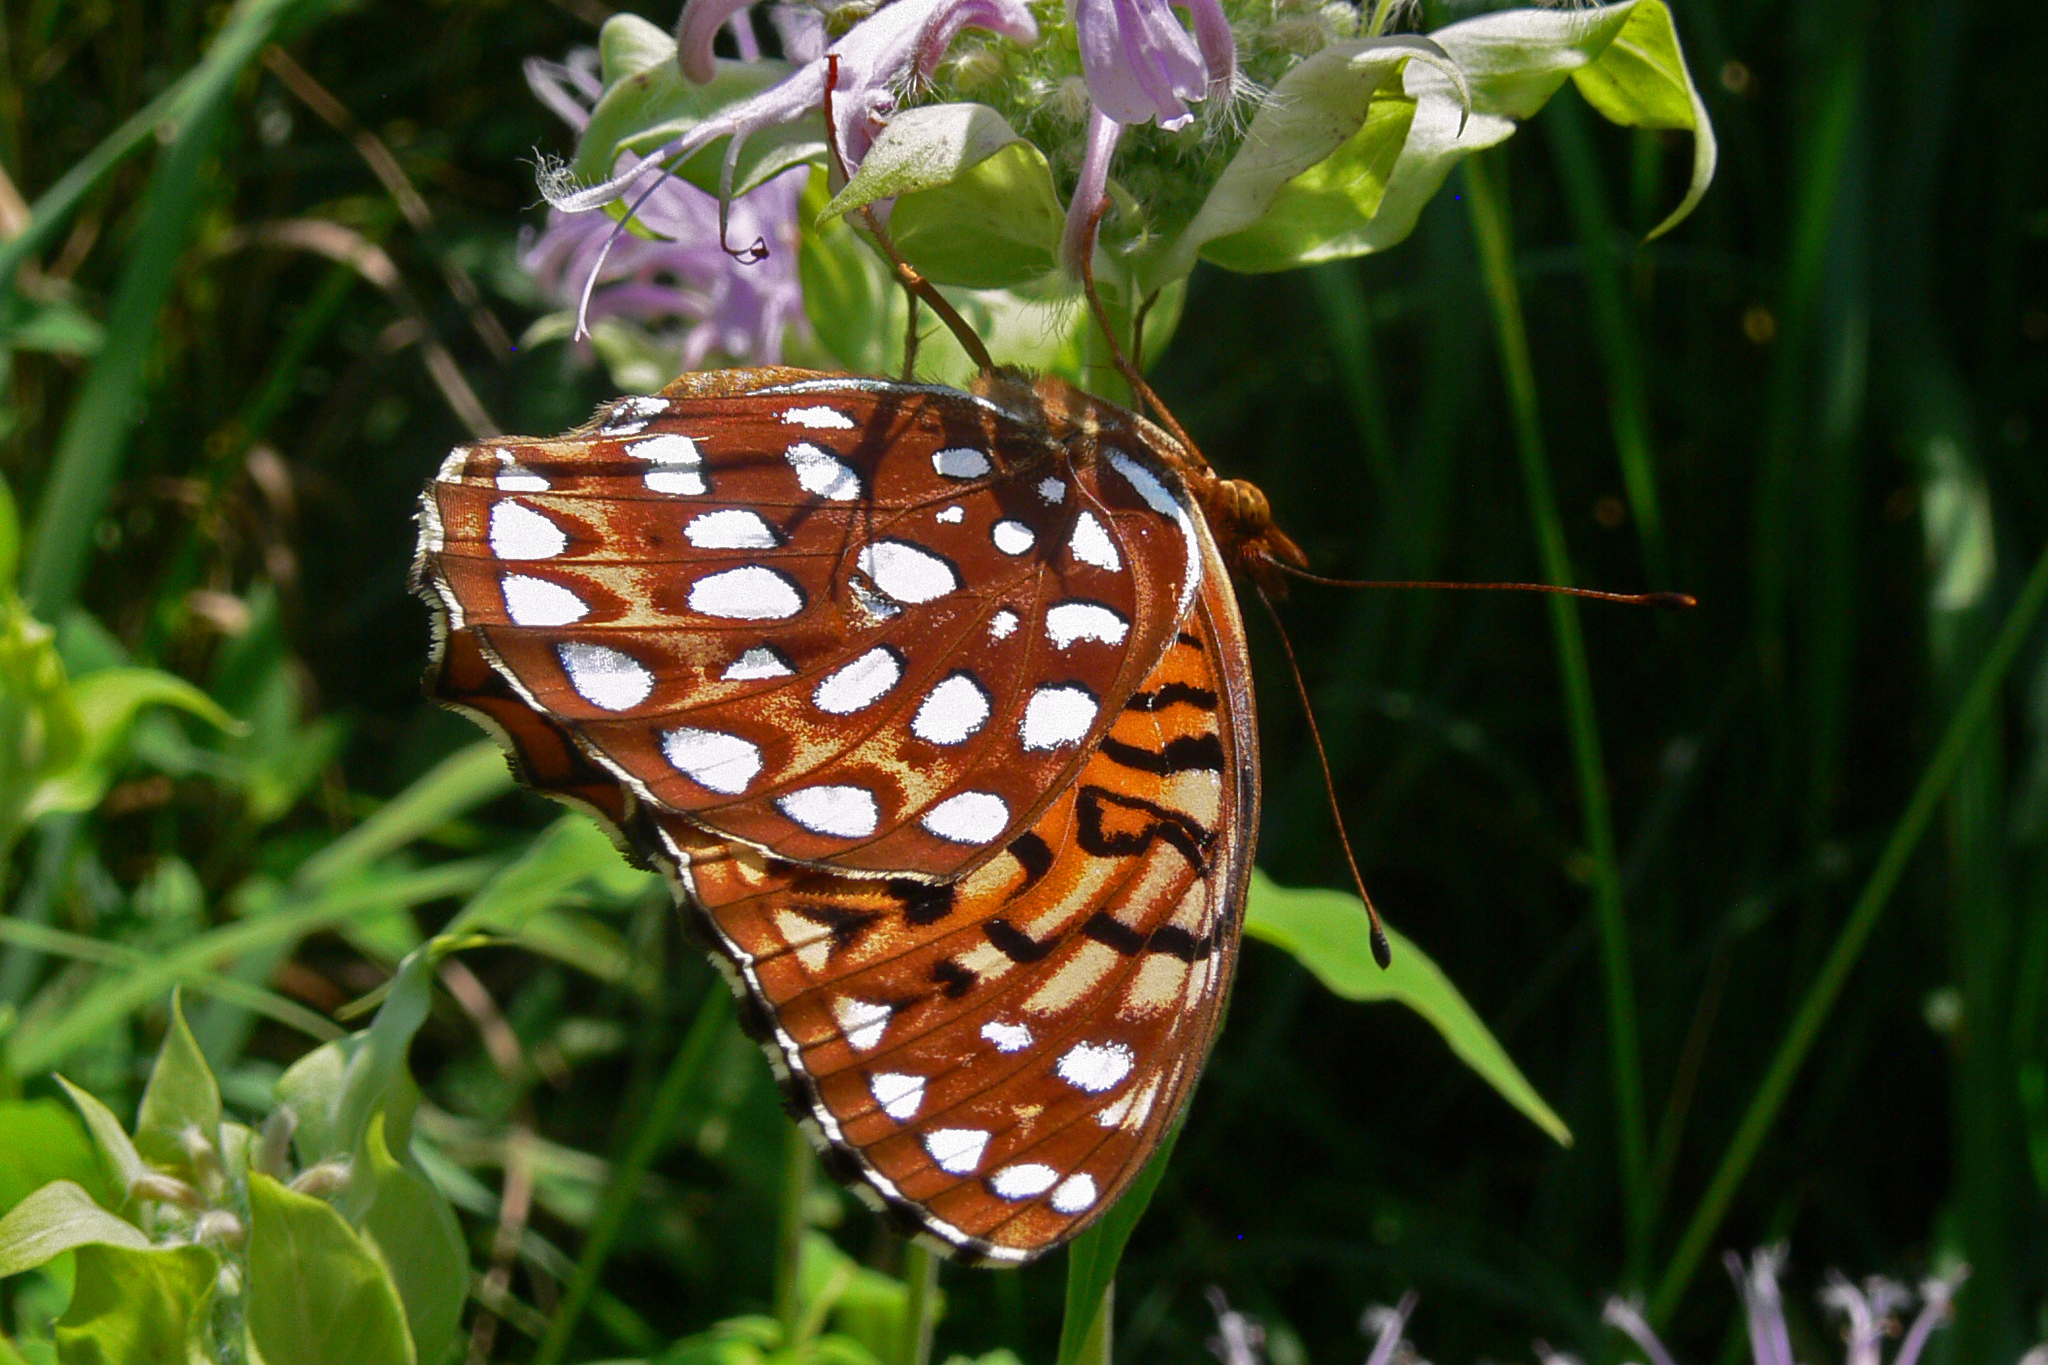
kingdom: Animalia
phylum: Arthropoda
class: Insecta
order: Lepidoptera
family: Nymphalidae
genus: Speyeria
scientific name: Speyeria aphrodite
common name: Aphrodite friitllary
